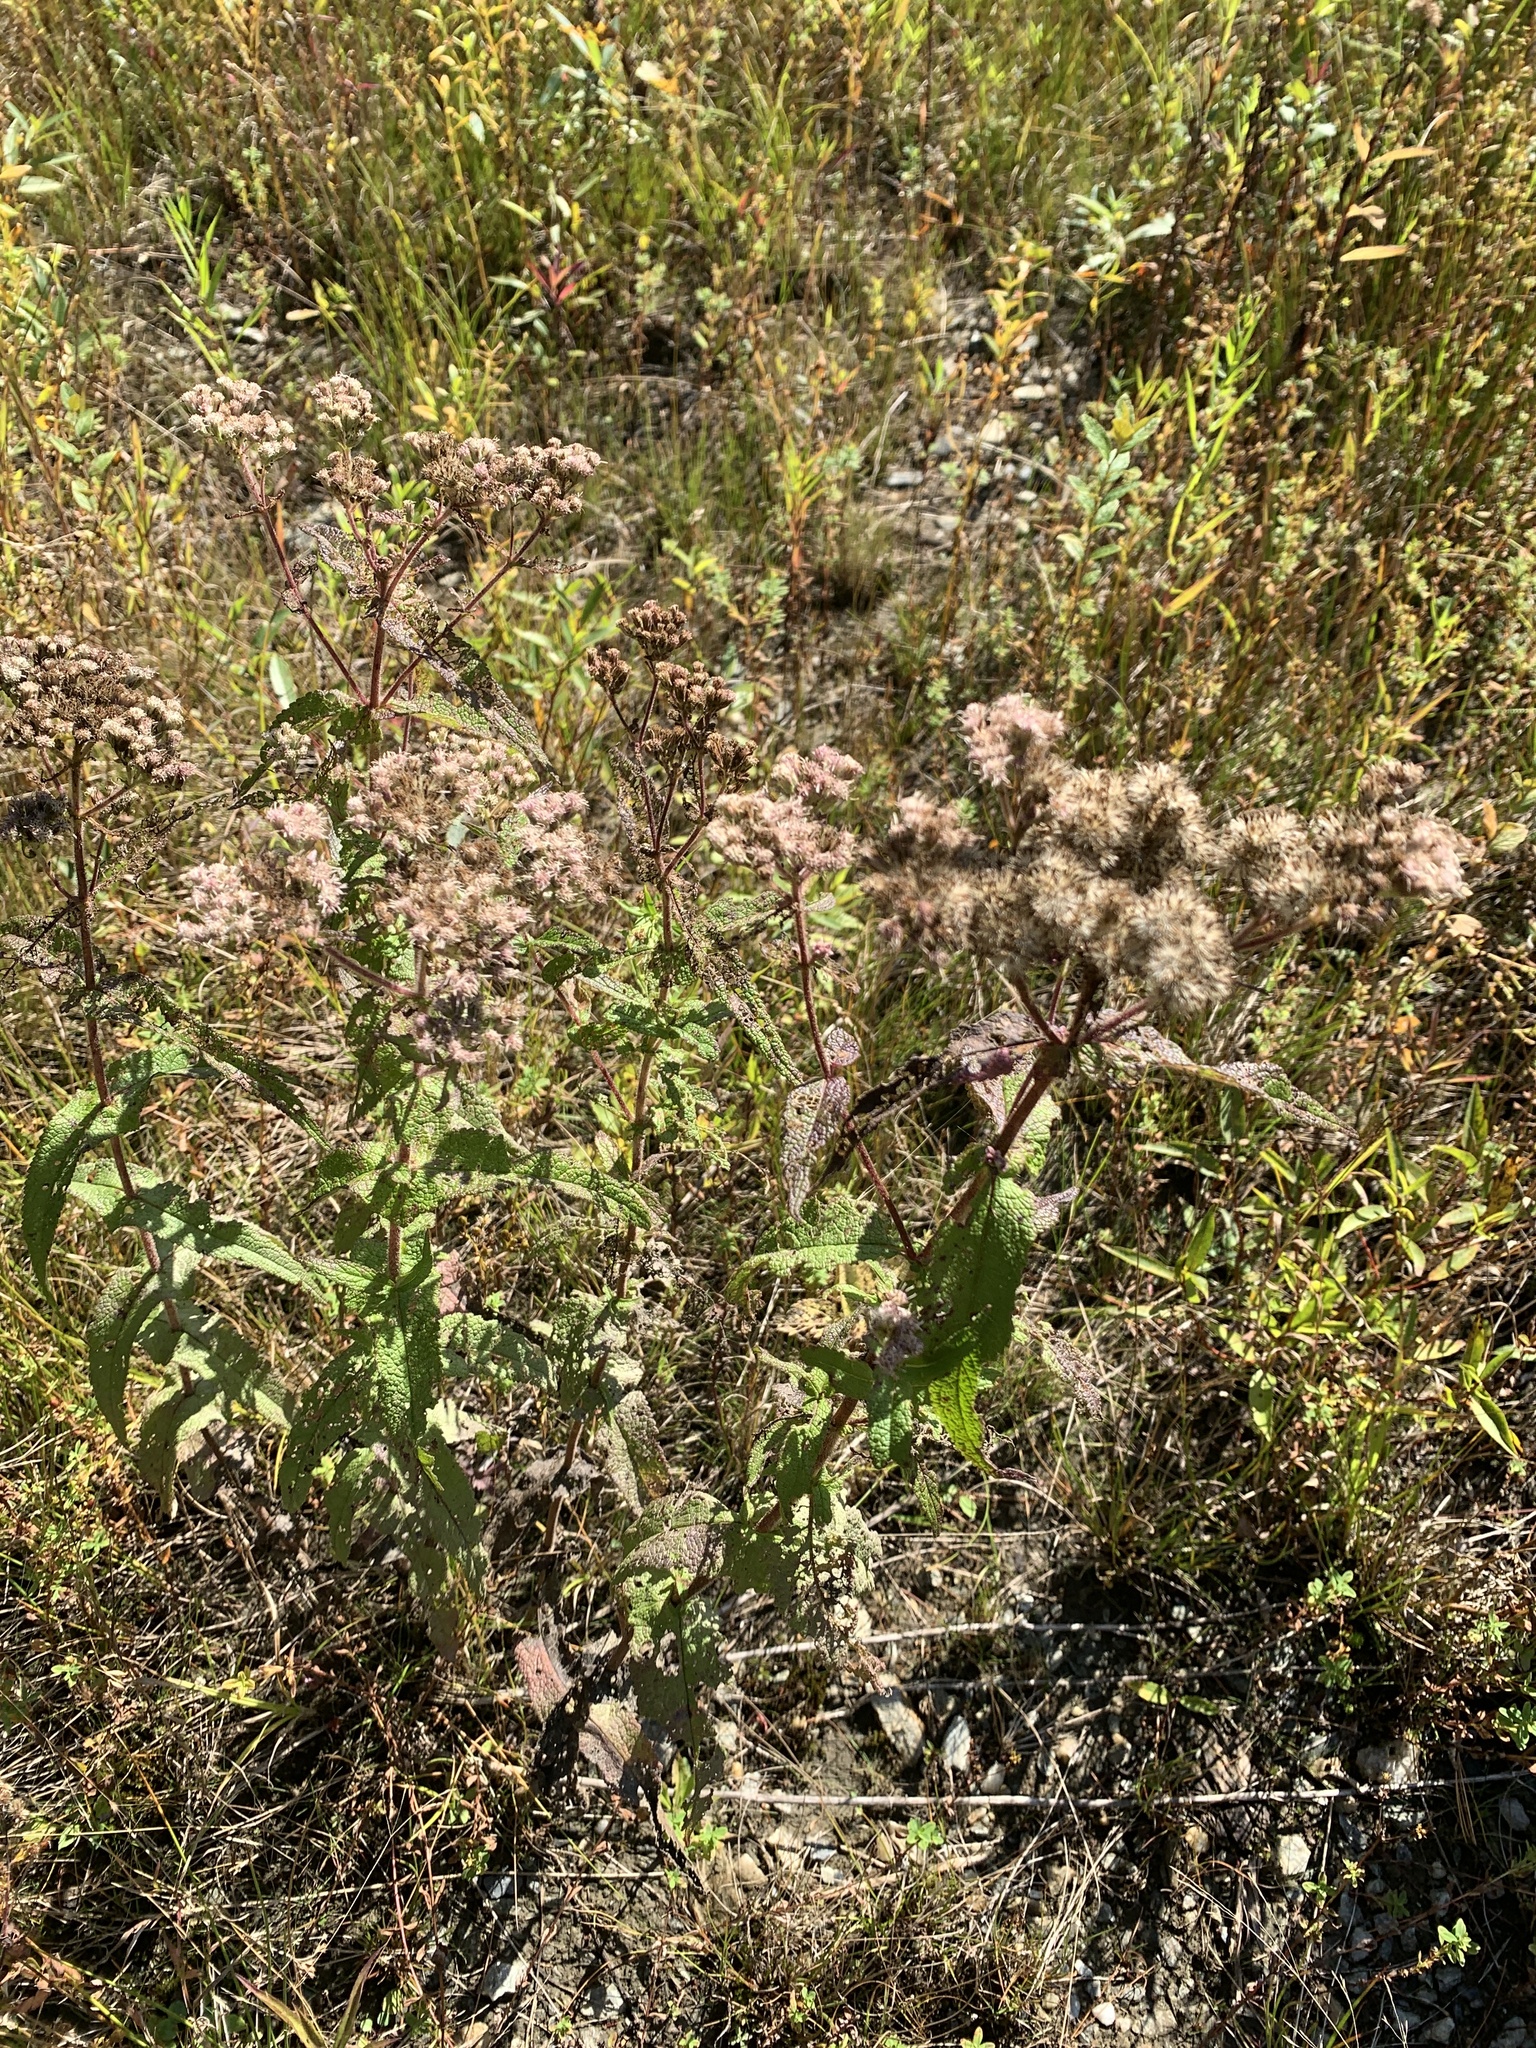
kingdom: Plantae
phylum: Tracheophyta
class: Magnoliopsida
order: Asterales
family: Asteraceae
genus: Eupatorium
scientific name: Eupatorium perfoliatum
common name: Boneset
